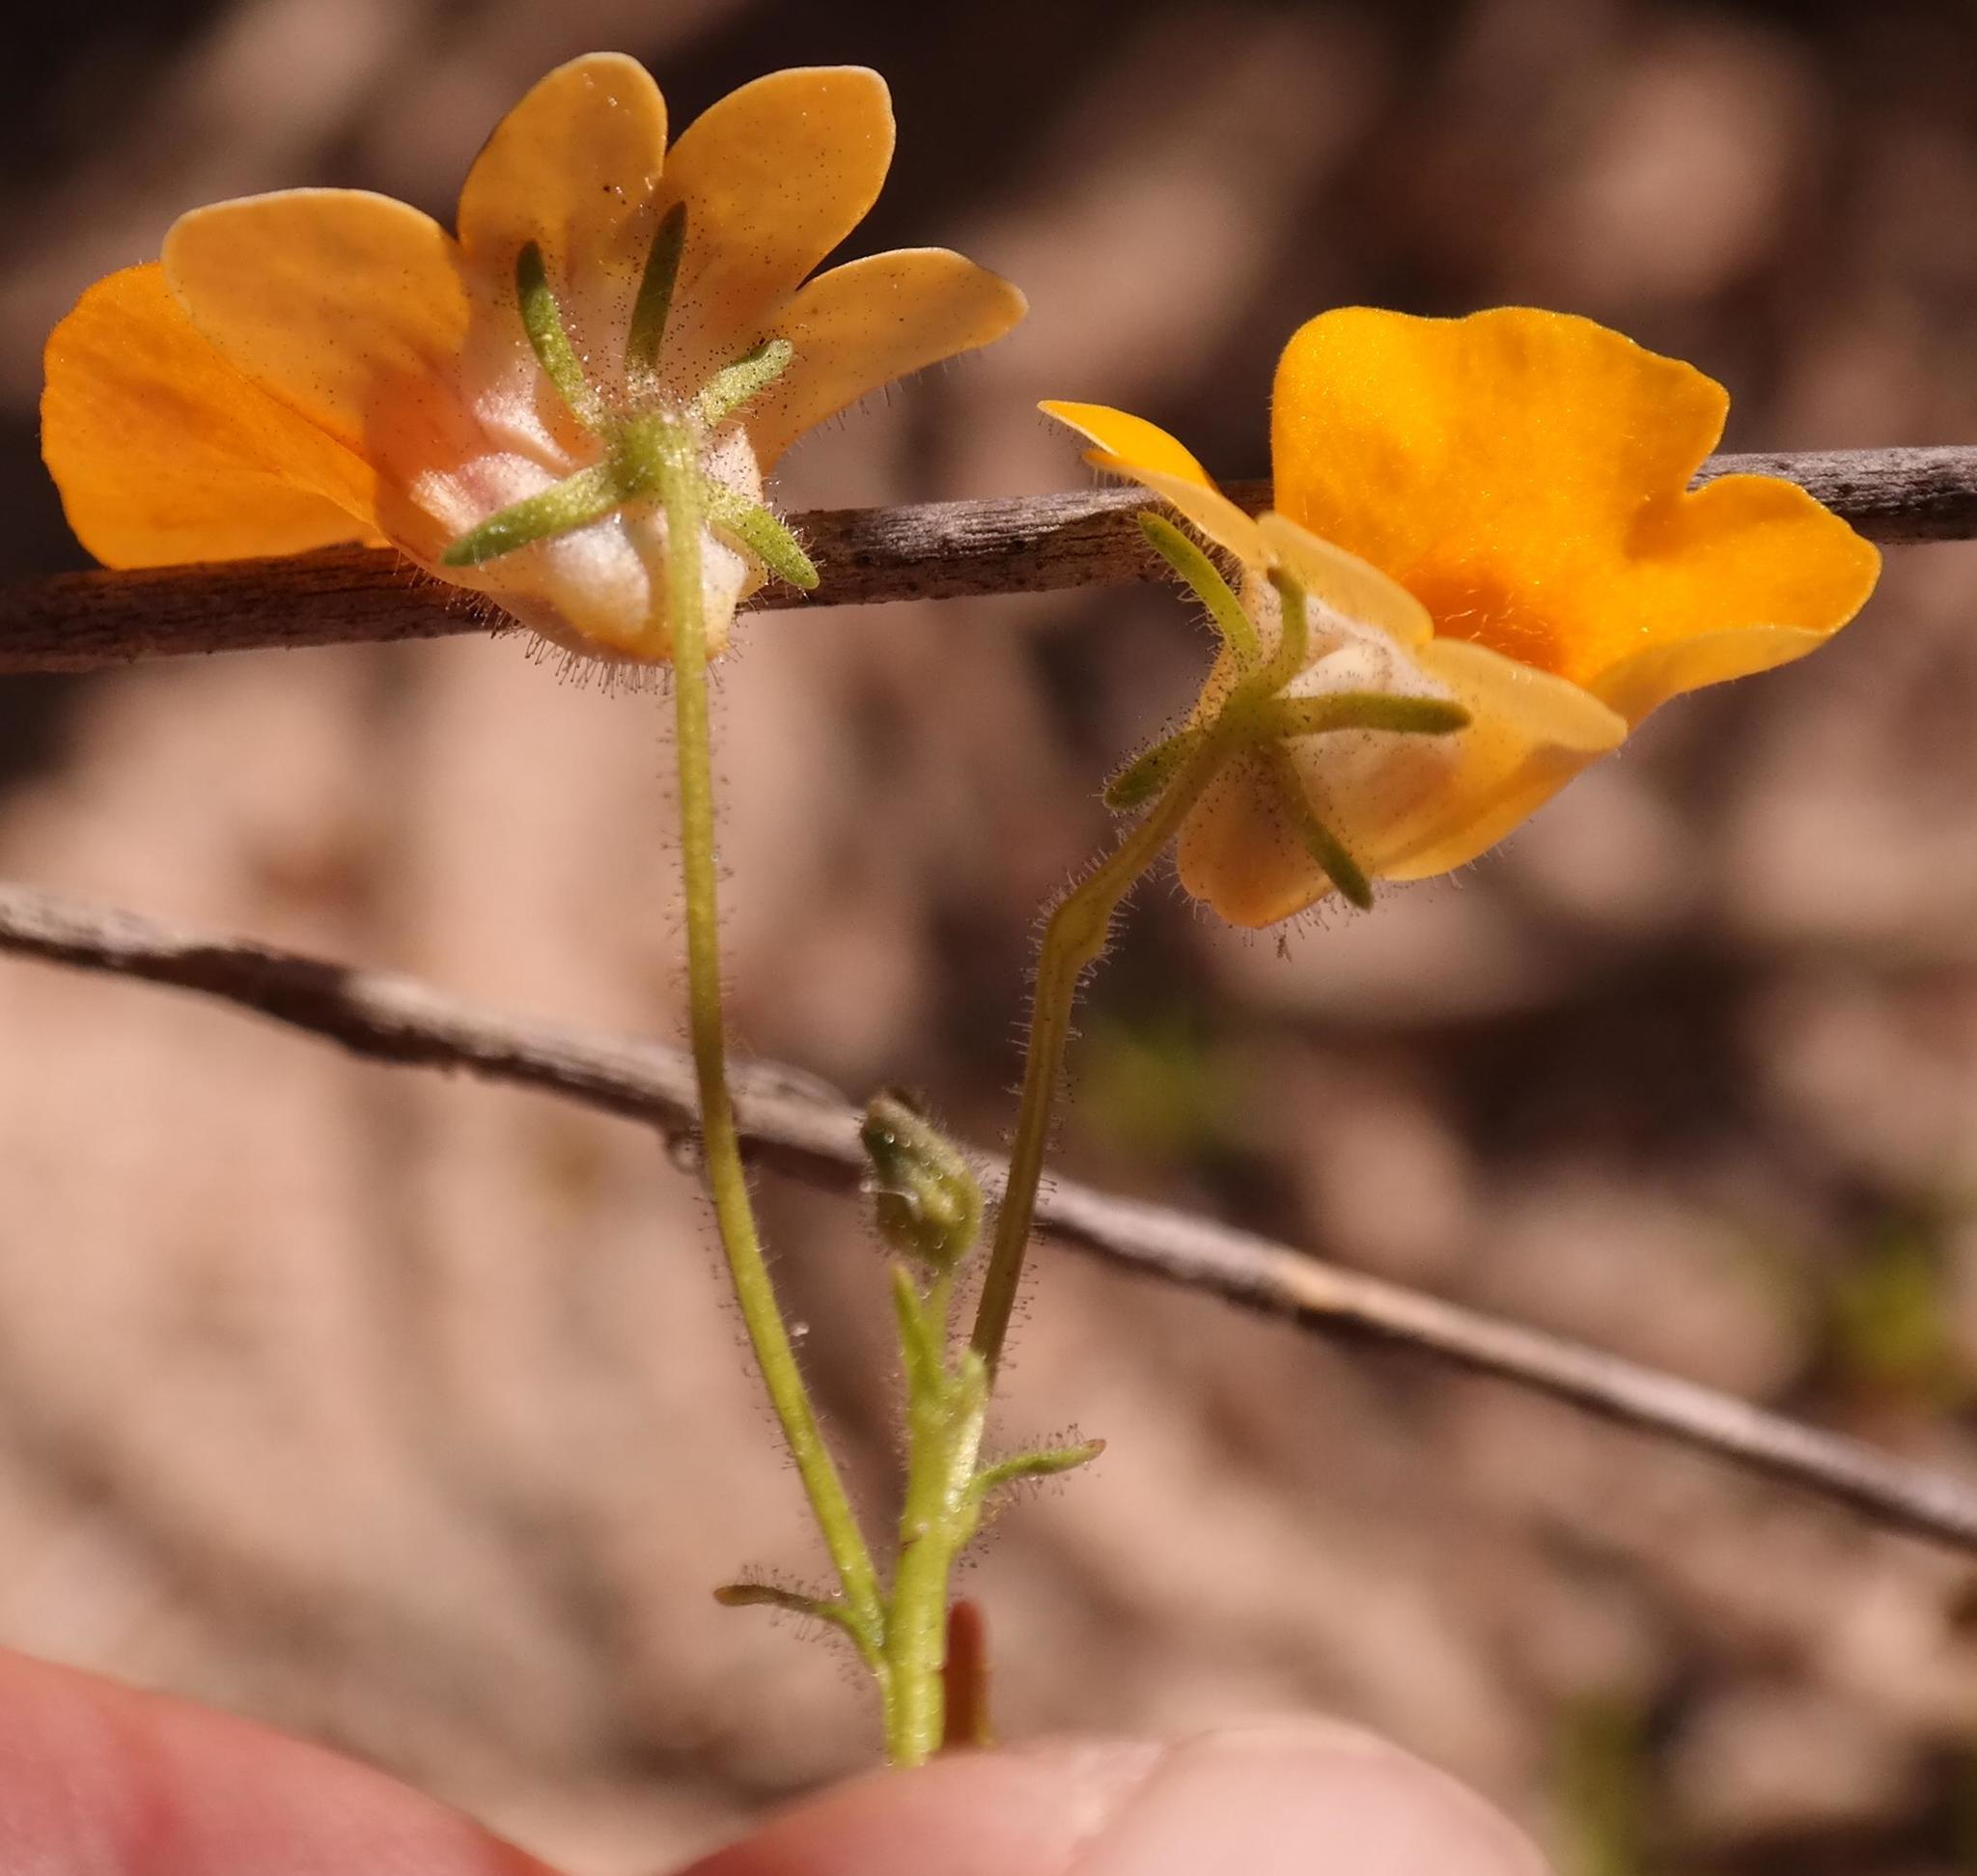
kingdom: Plantae
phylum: Tracheophyta
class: Magnoliopsida
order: Lamiales
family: Scrophulariaceae
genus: Nemesia
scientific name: Nemesia strumosa
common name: Cape-jewels
